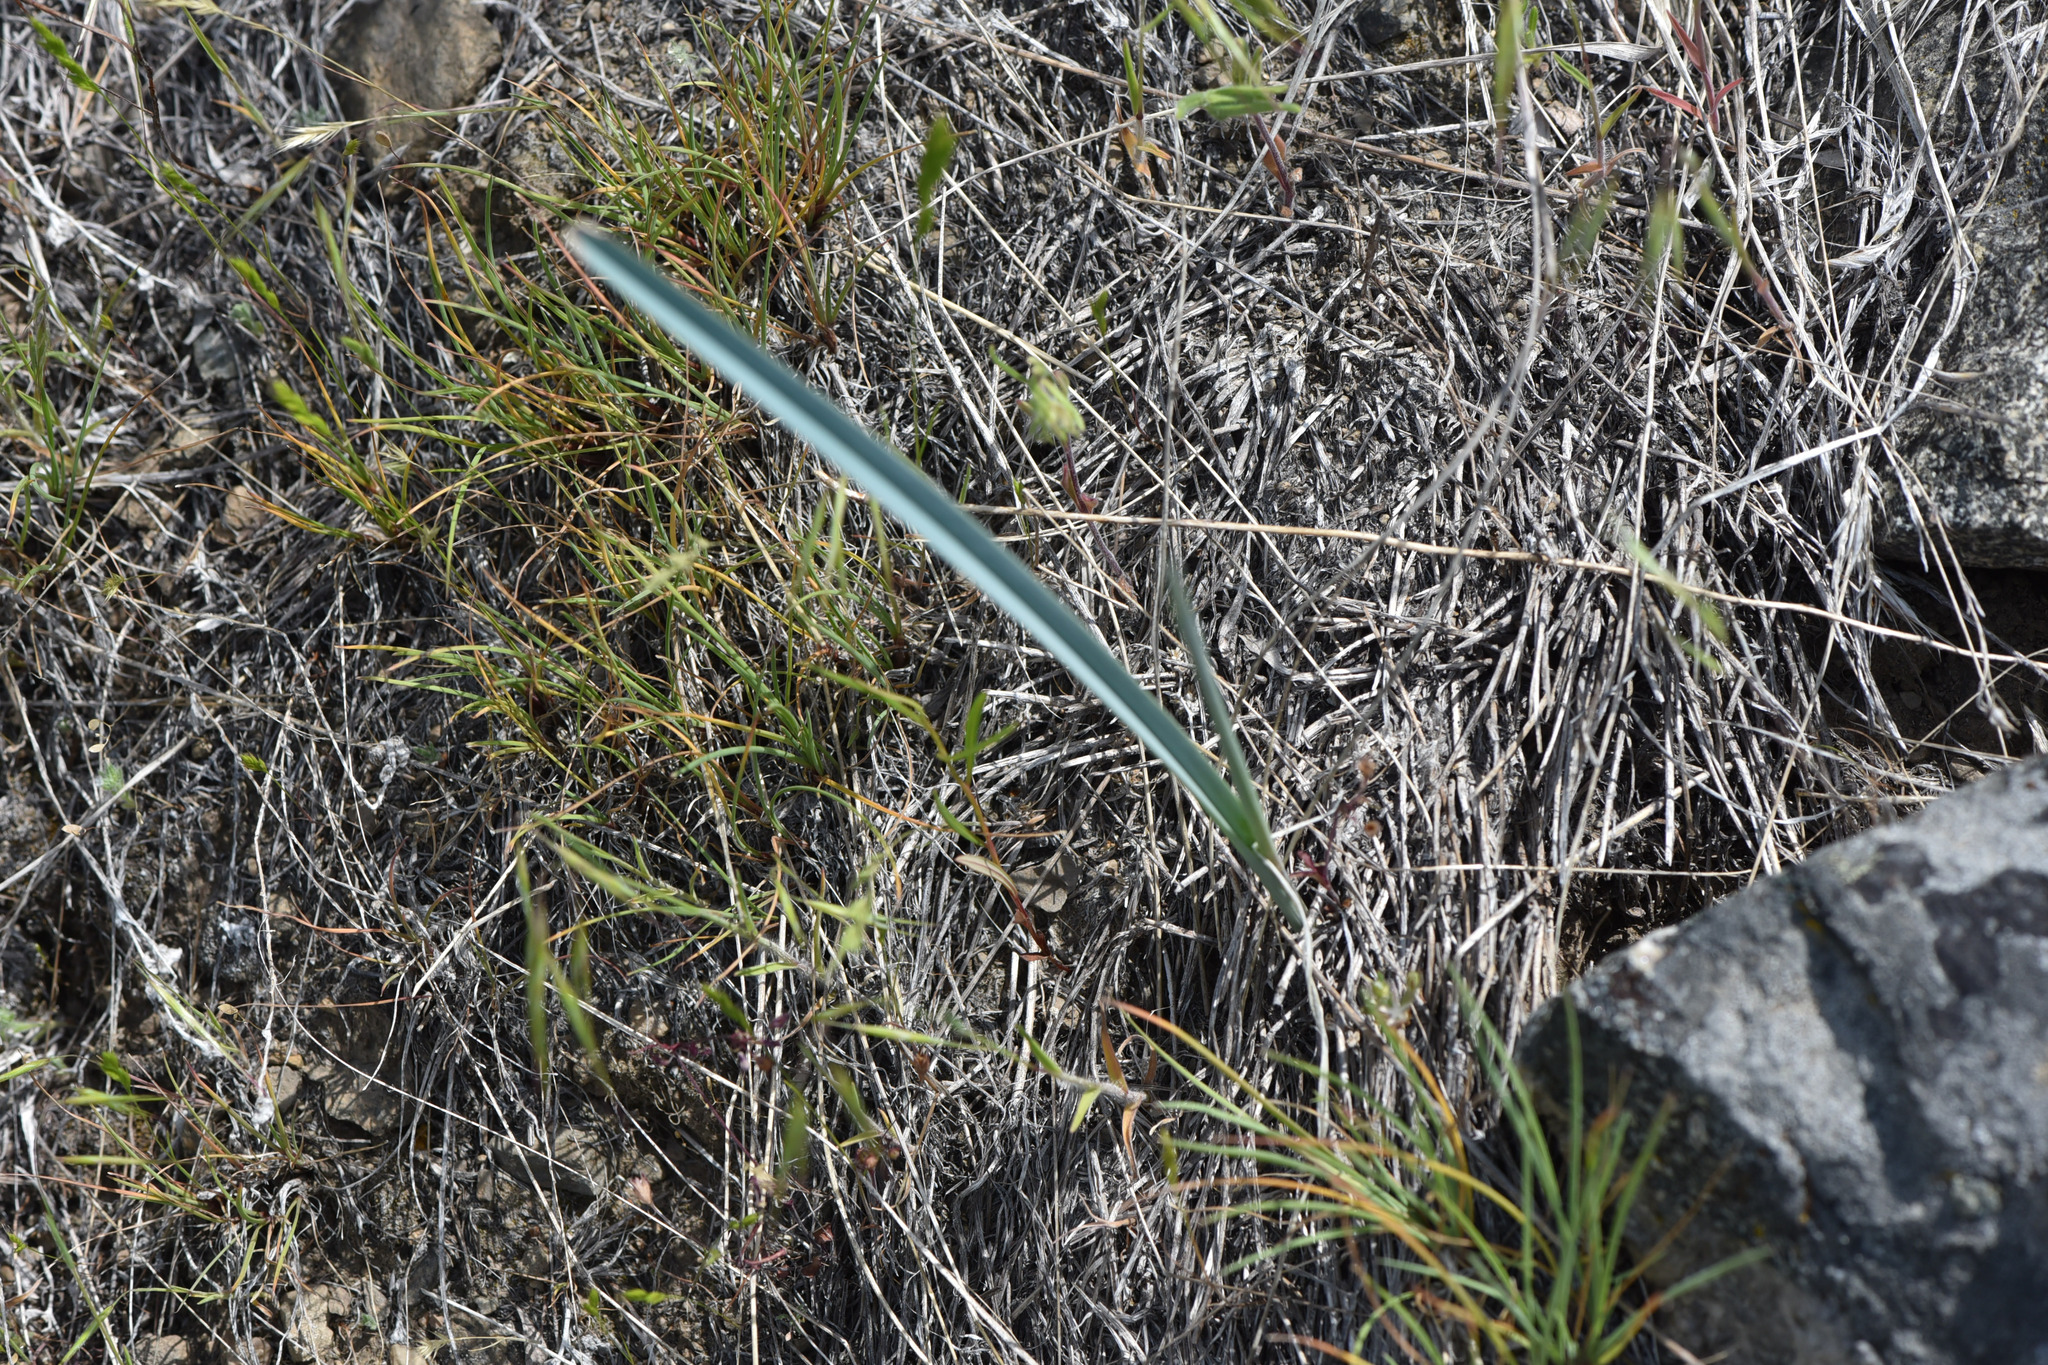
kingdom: Plantae
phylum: Tracheophyta
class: Liliopsida
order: Liliales
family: Liliaceae
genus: Calochortus
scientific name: Calochortus macrocarpus
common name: Green-band mariposa lily
